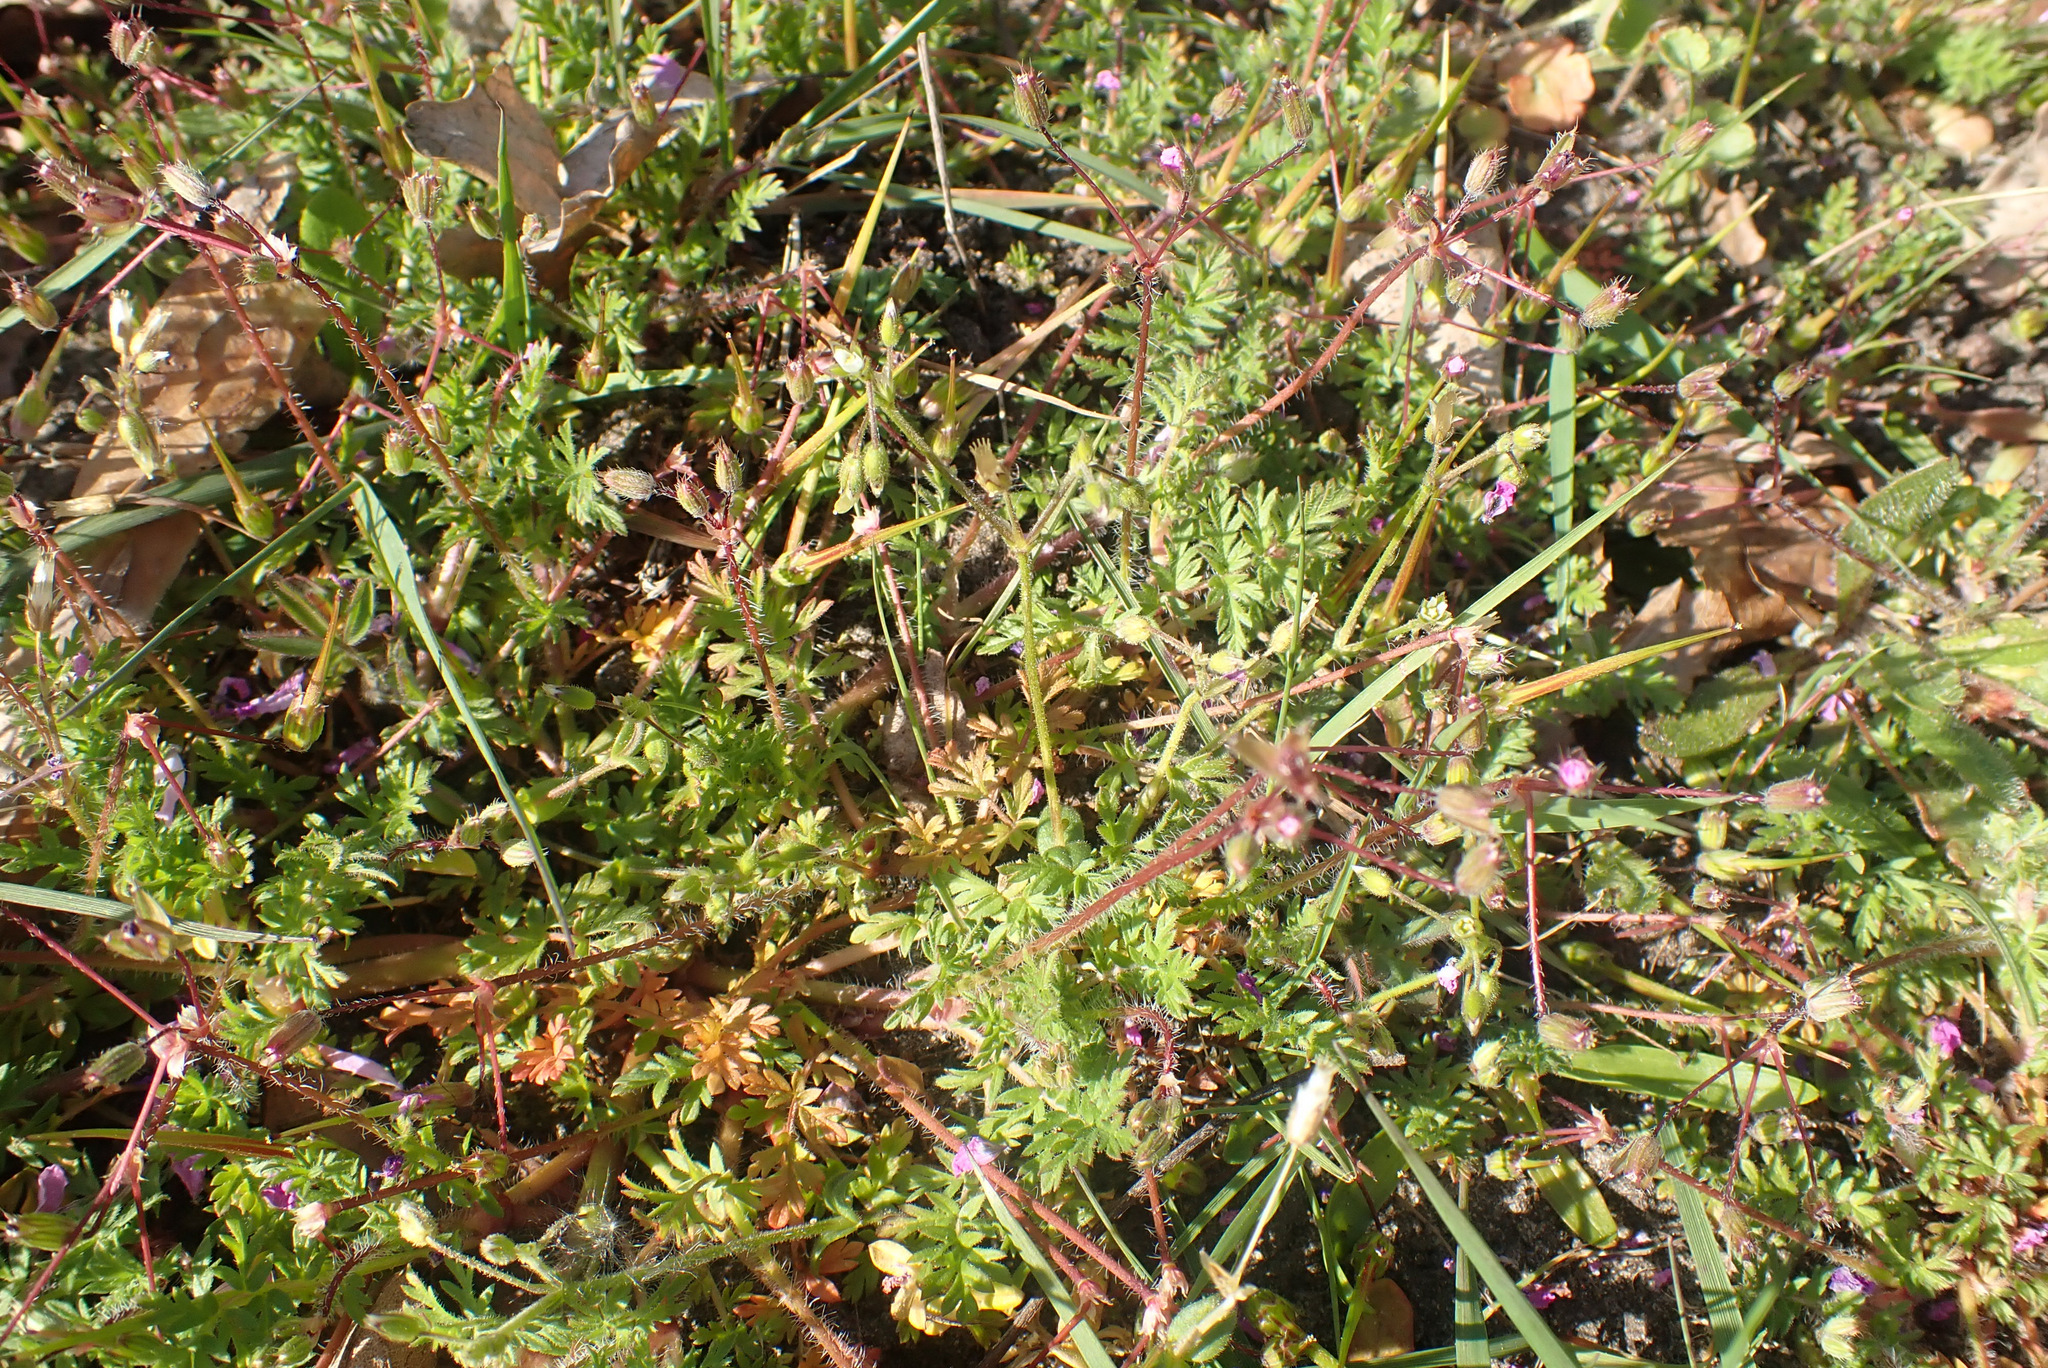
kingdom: Plantae
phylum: Tracheophyta
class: Magnoliopsida
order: Geraniales
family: Geraniaceae
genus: Erodium
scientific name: Erodium cicutarium
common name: Common stork's-bill
